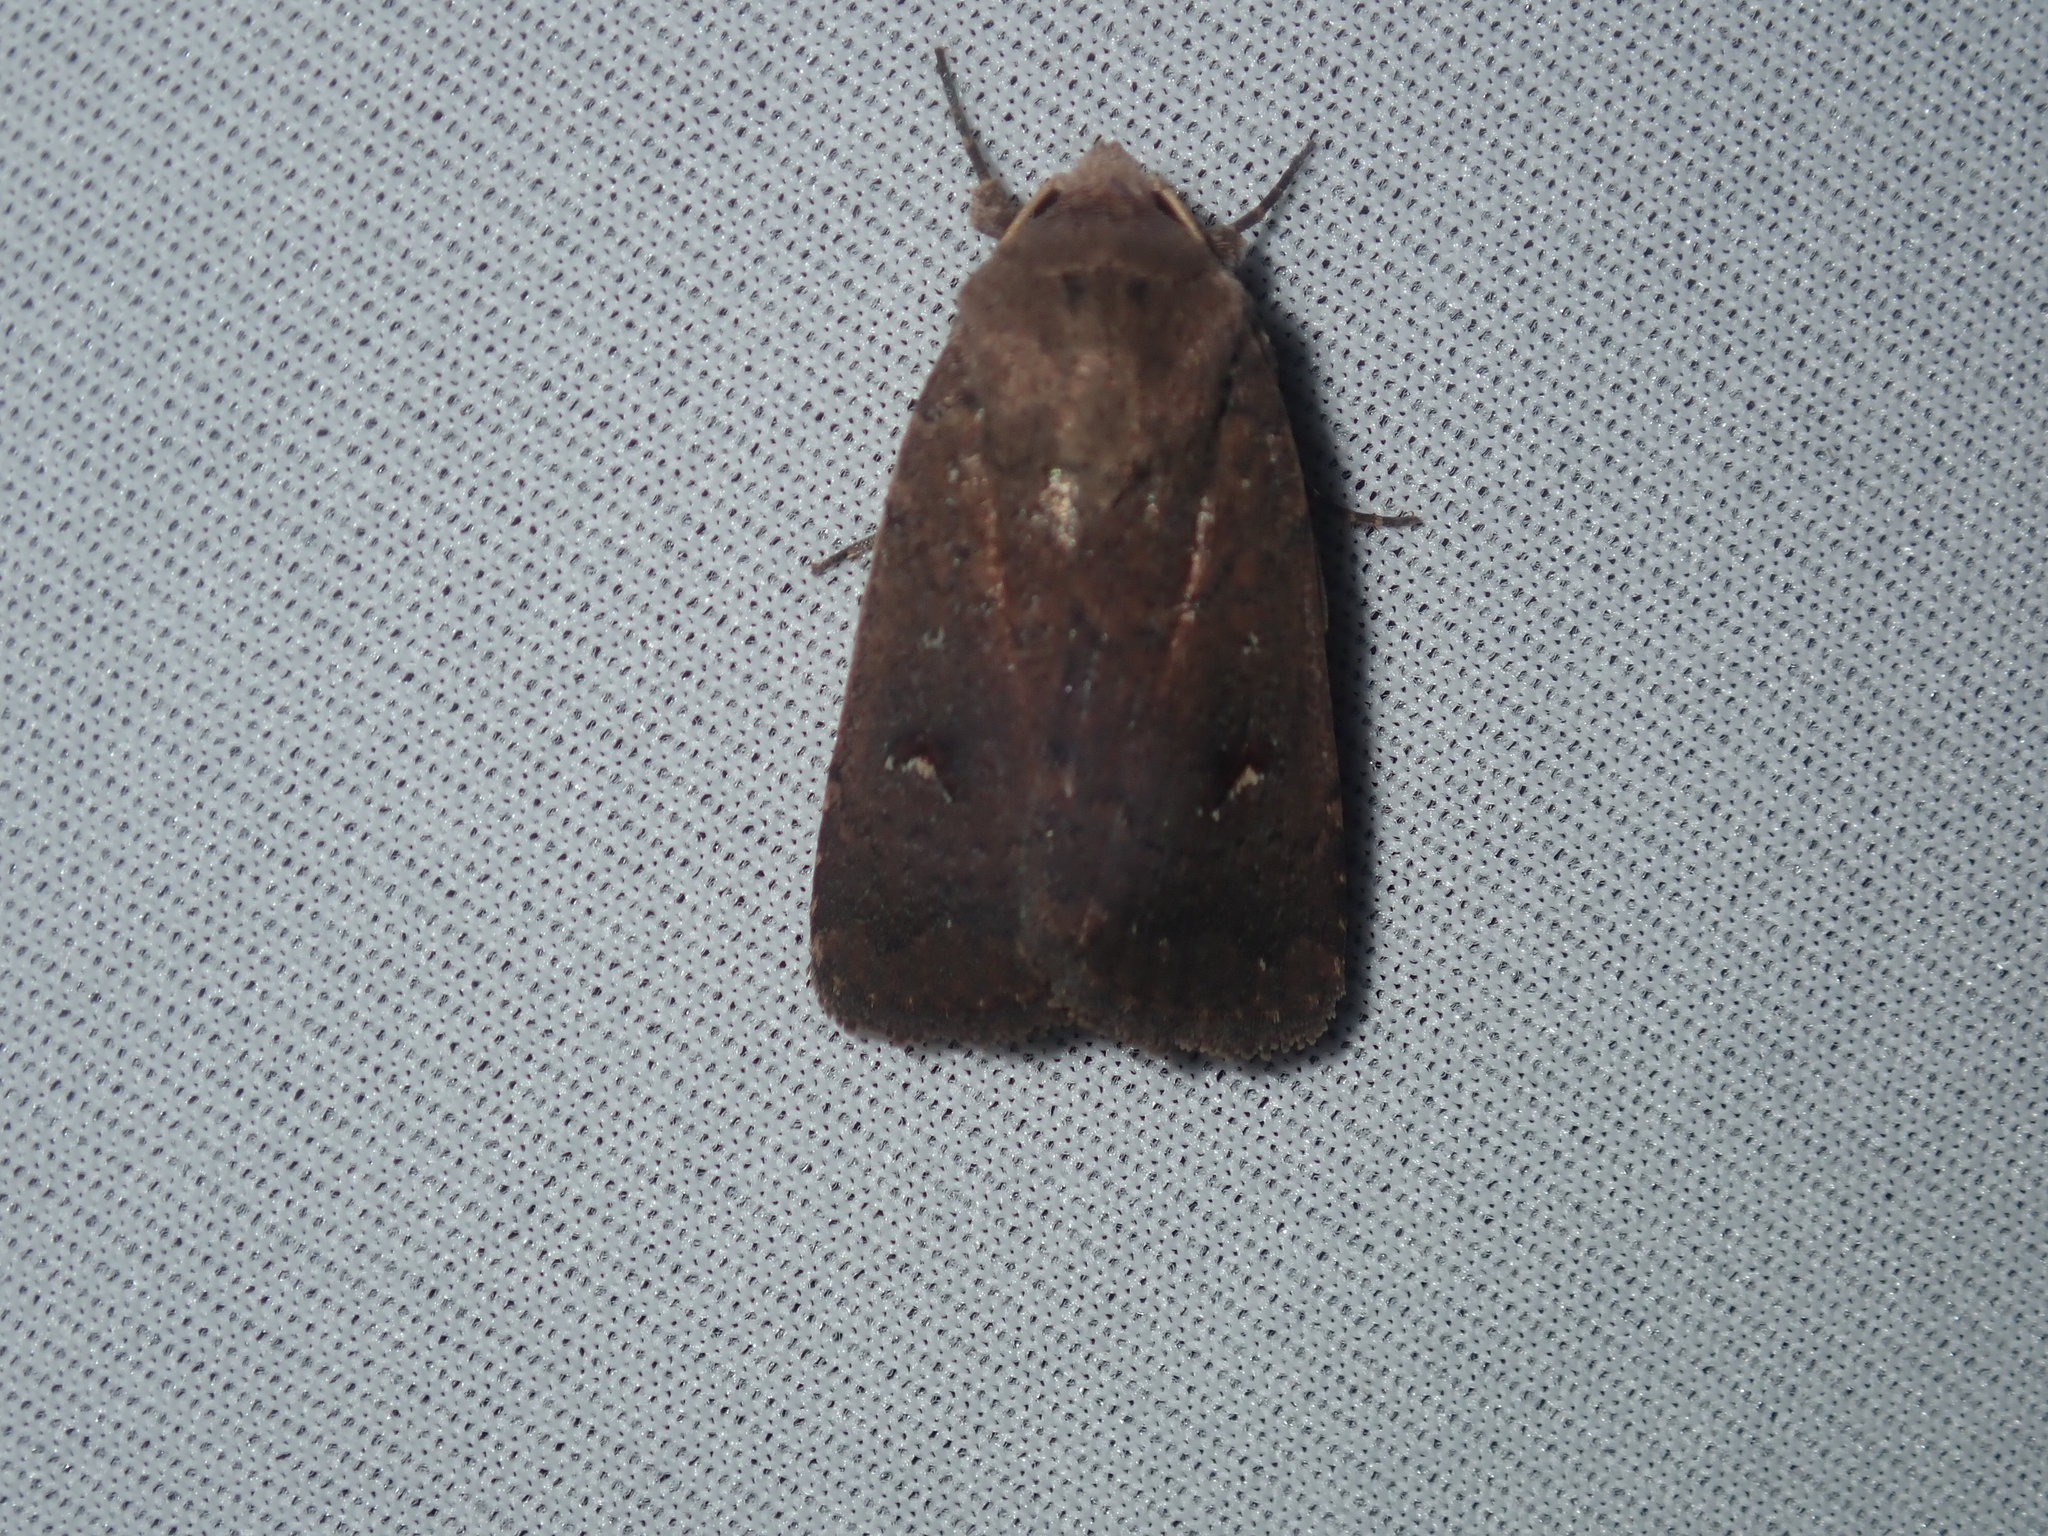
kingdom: Animalia
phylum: Arthropoda
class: Insecta
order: Lepidoptera
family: Noctuidae
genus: Proteuxoa
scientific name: Proteuxoa tibiata
